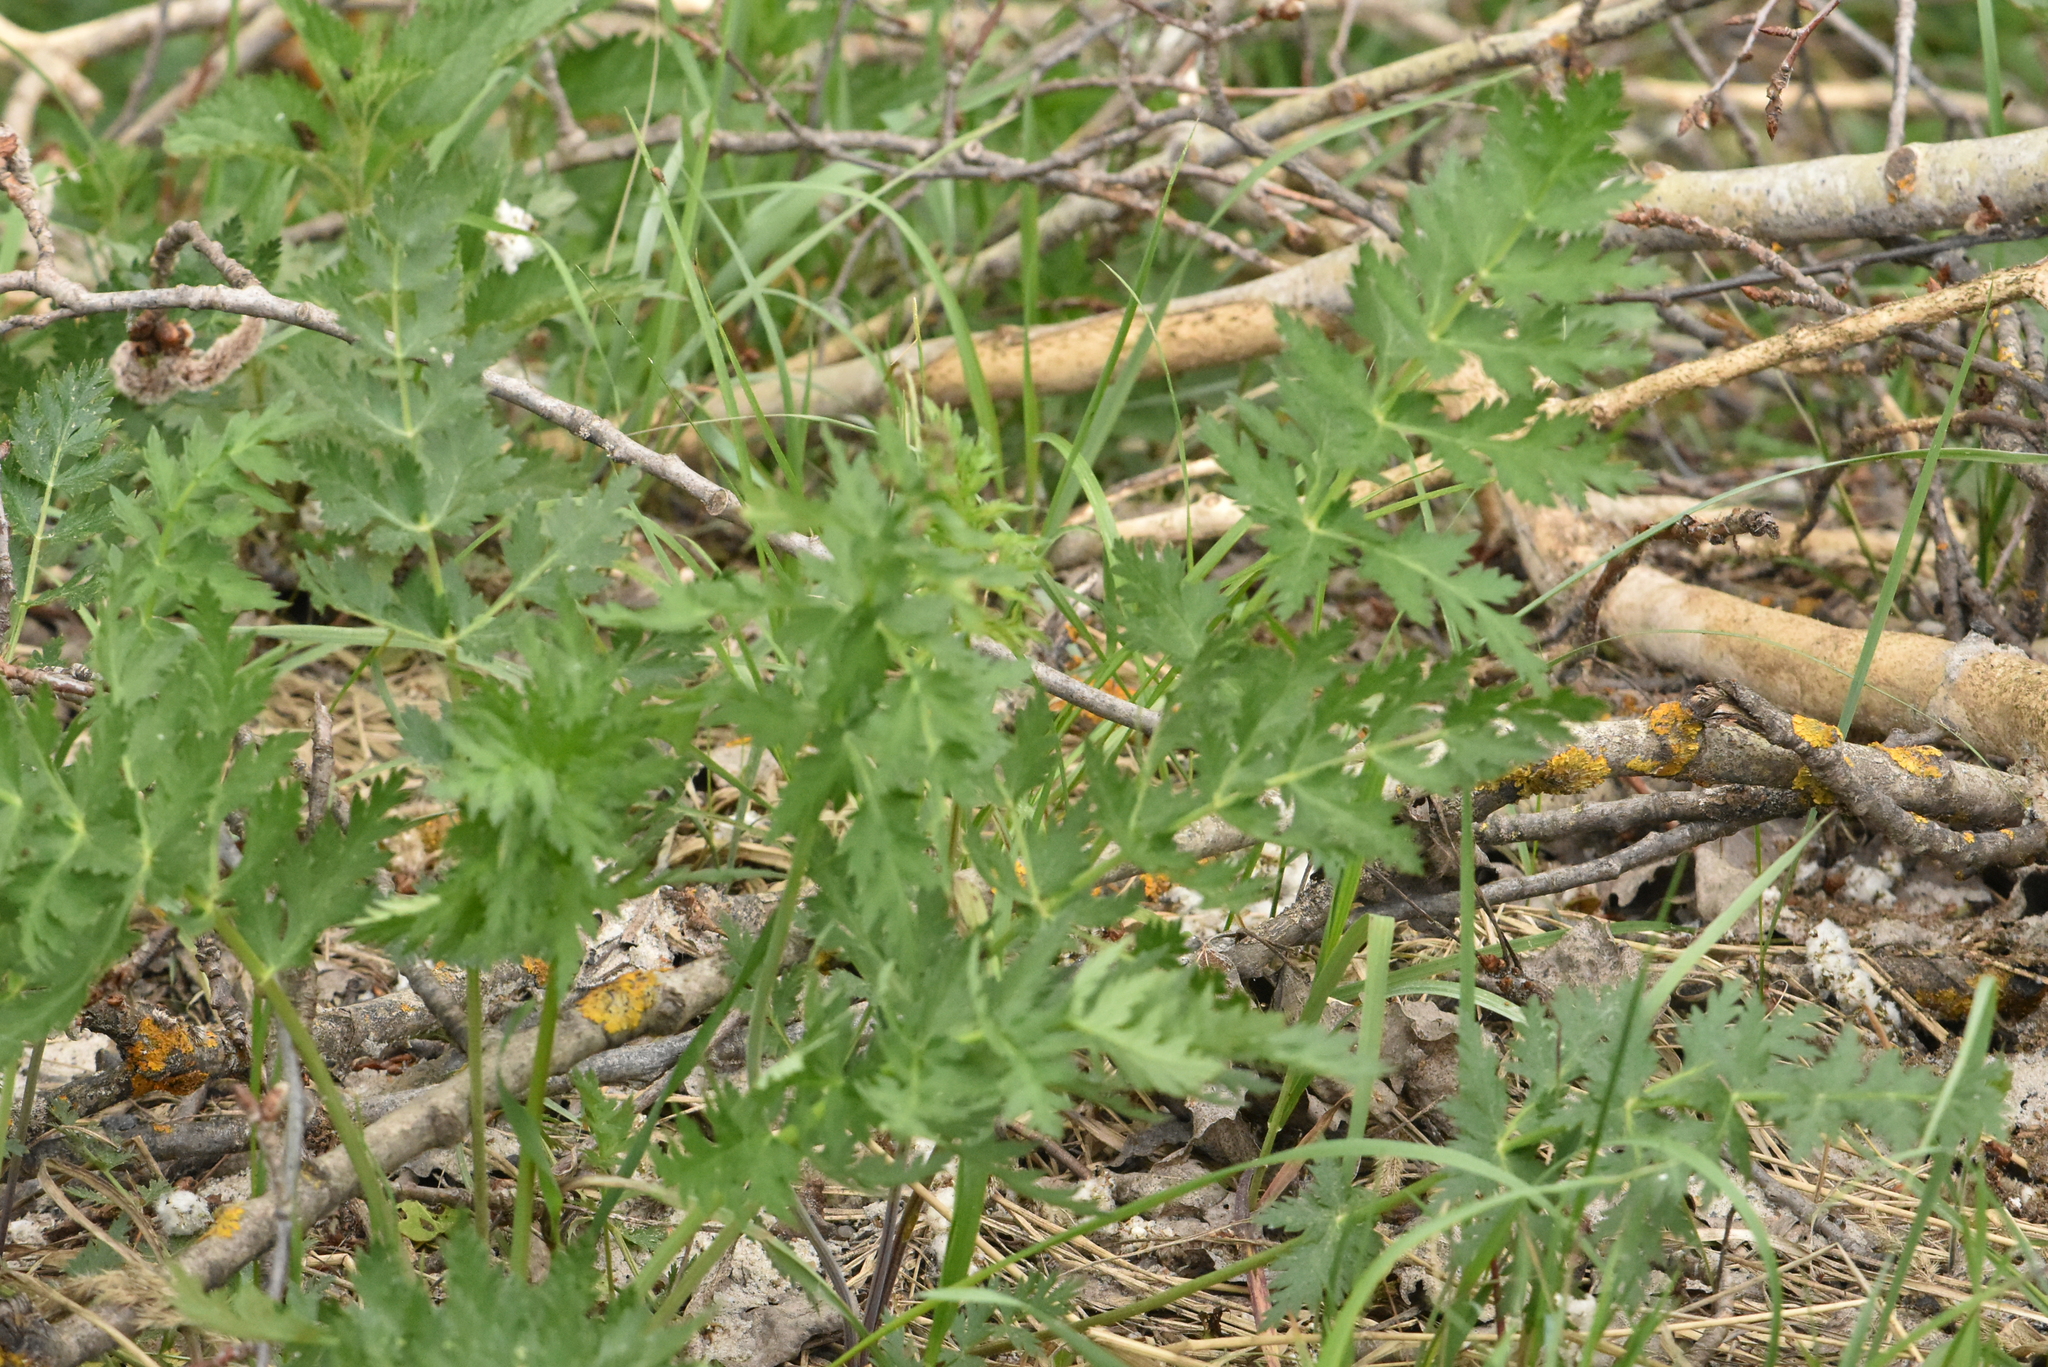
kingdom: Plantae
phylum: Tracheophyta
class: Magnoliopsida
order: Apiales
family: Apiaceae
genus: Seseli
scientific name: Seseli libanotis
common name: Mooncarrot
